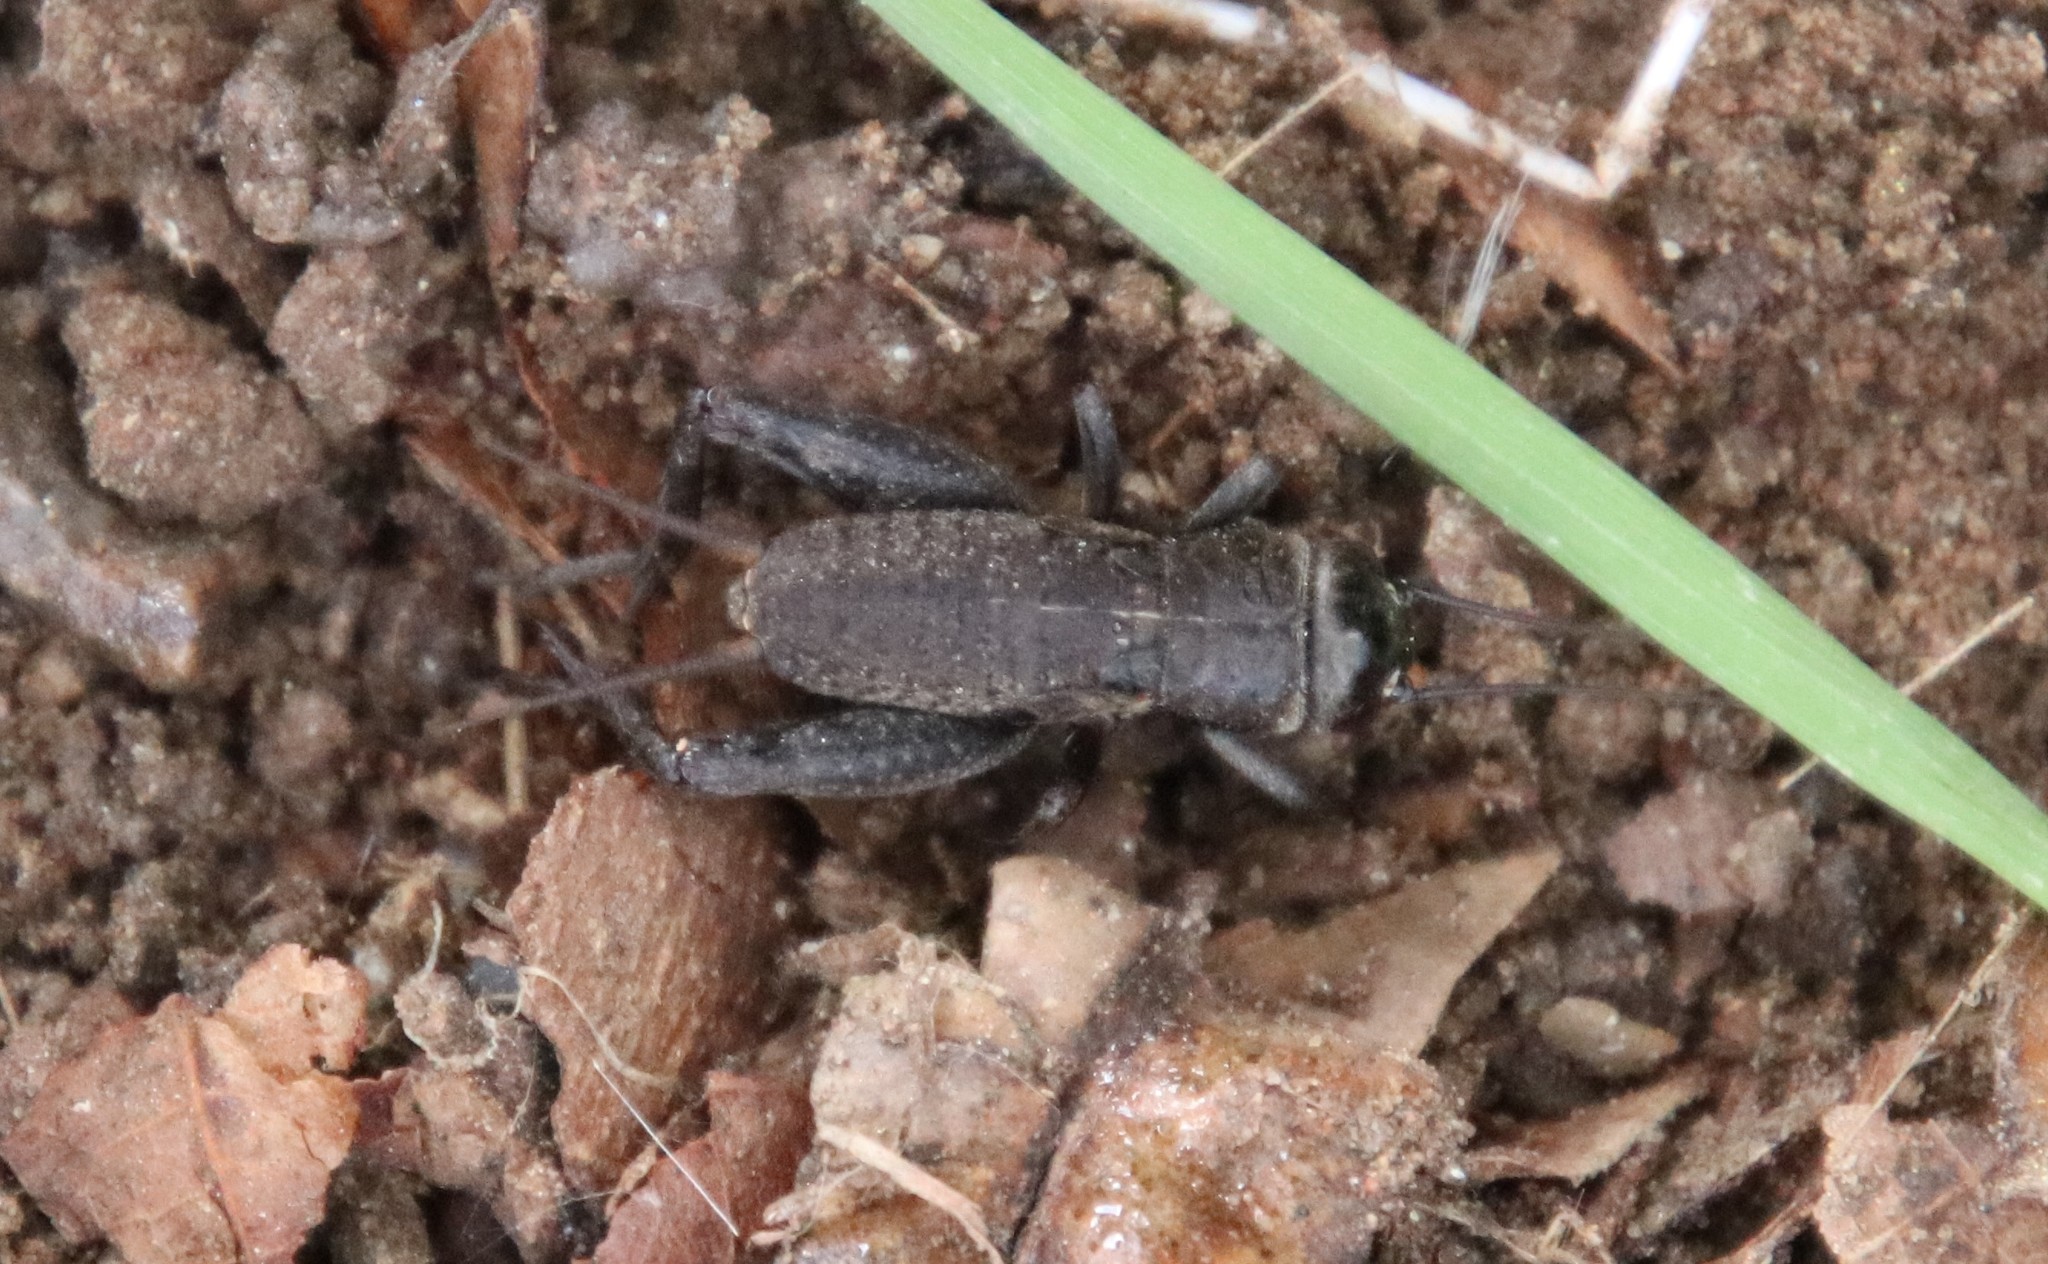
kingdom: Animalia
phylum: Arthropoda
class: Insecta
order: Orthoptera
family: Gryllidae
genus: Gryllus
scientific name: Gryllus
